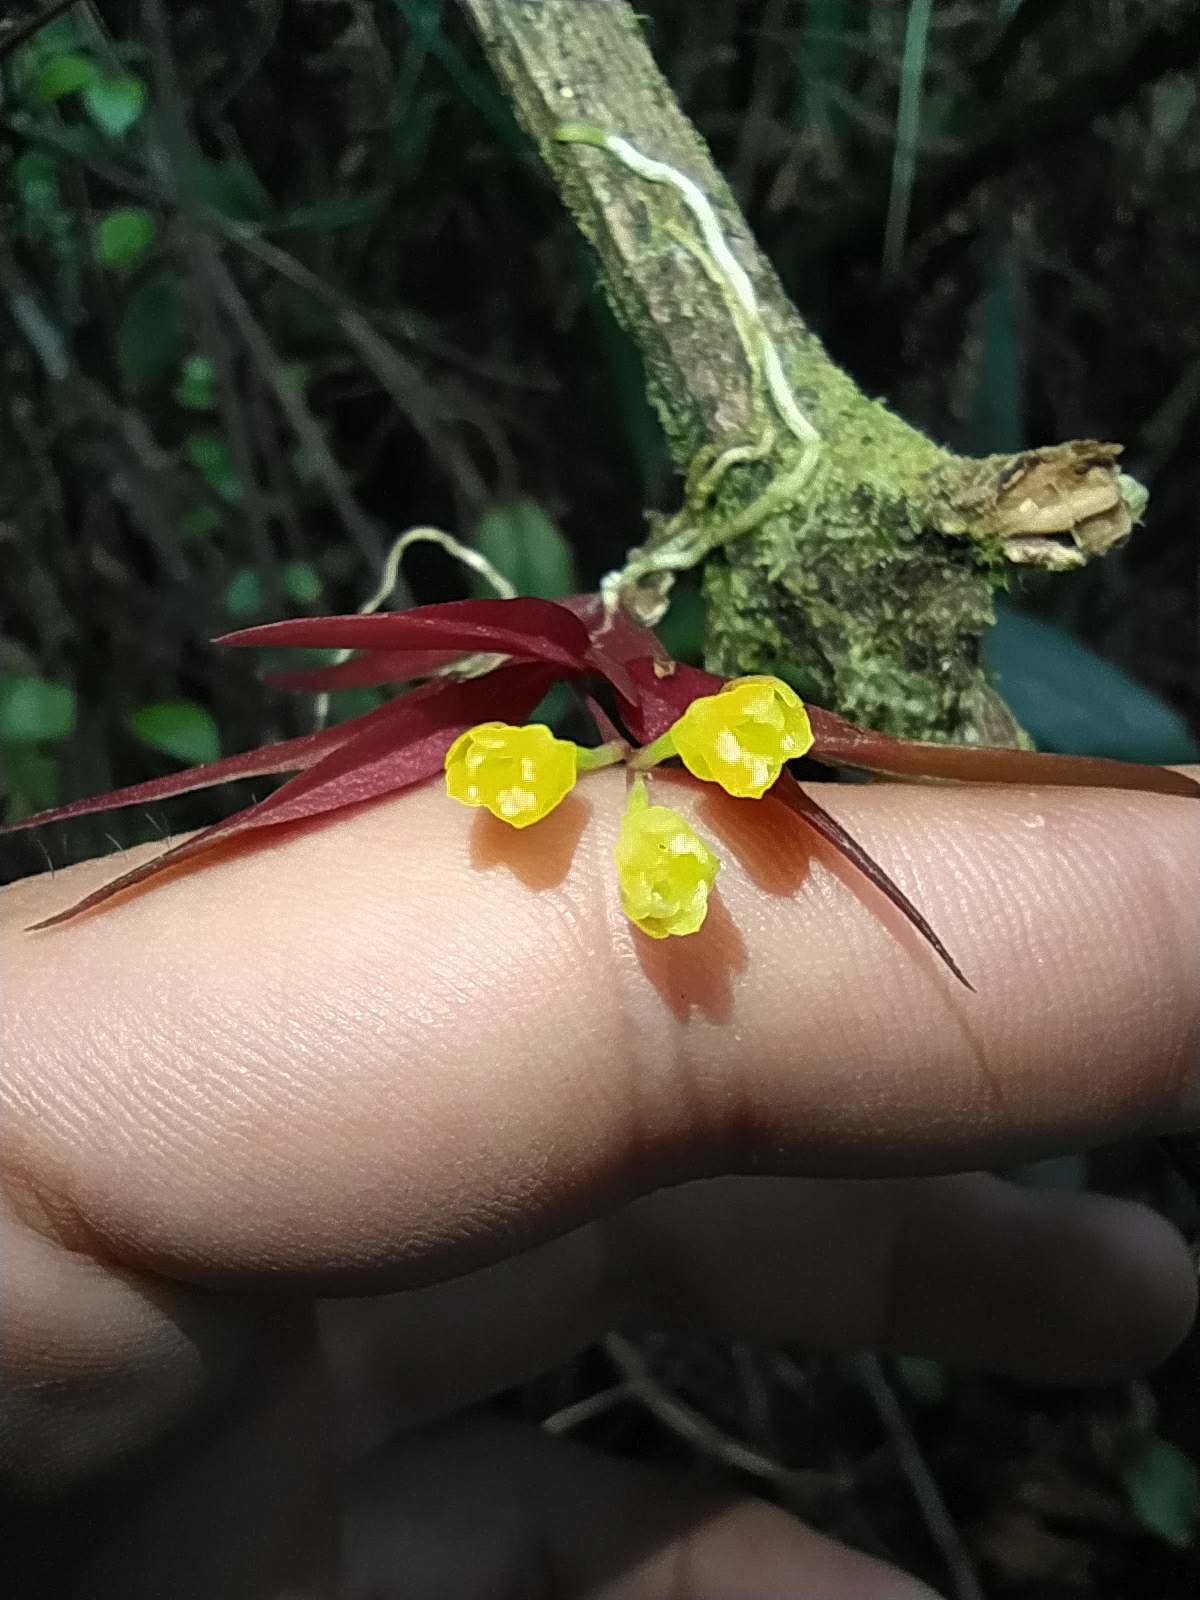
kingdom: Plantae
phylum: Tracheophyta
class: Liliopsida
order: Asparagales
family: Orchidaceae
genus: Pterostemma
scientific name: Pterostemma antioquiense
